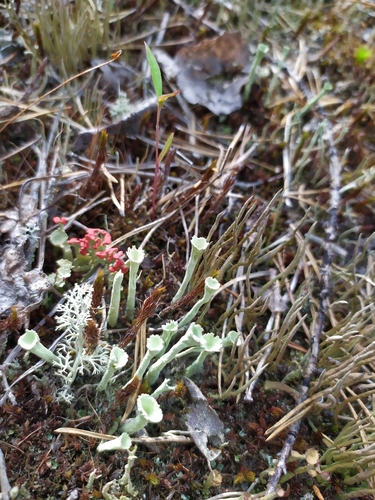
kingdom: Fungi
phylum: Ascomycota
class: Lecanoromycetes
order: Lecanorales
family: Cladoniaceae
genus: Cladonia
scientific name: Cladonia
